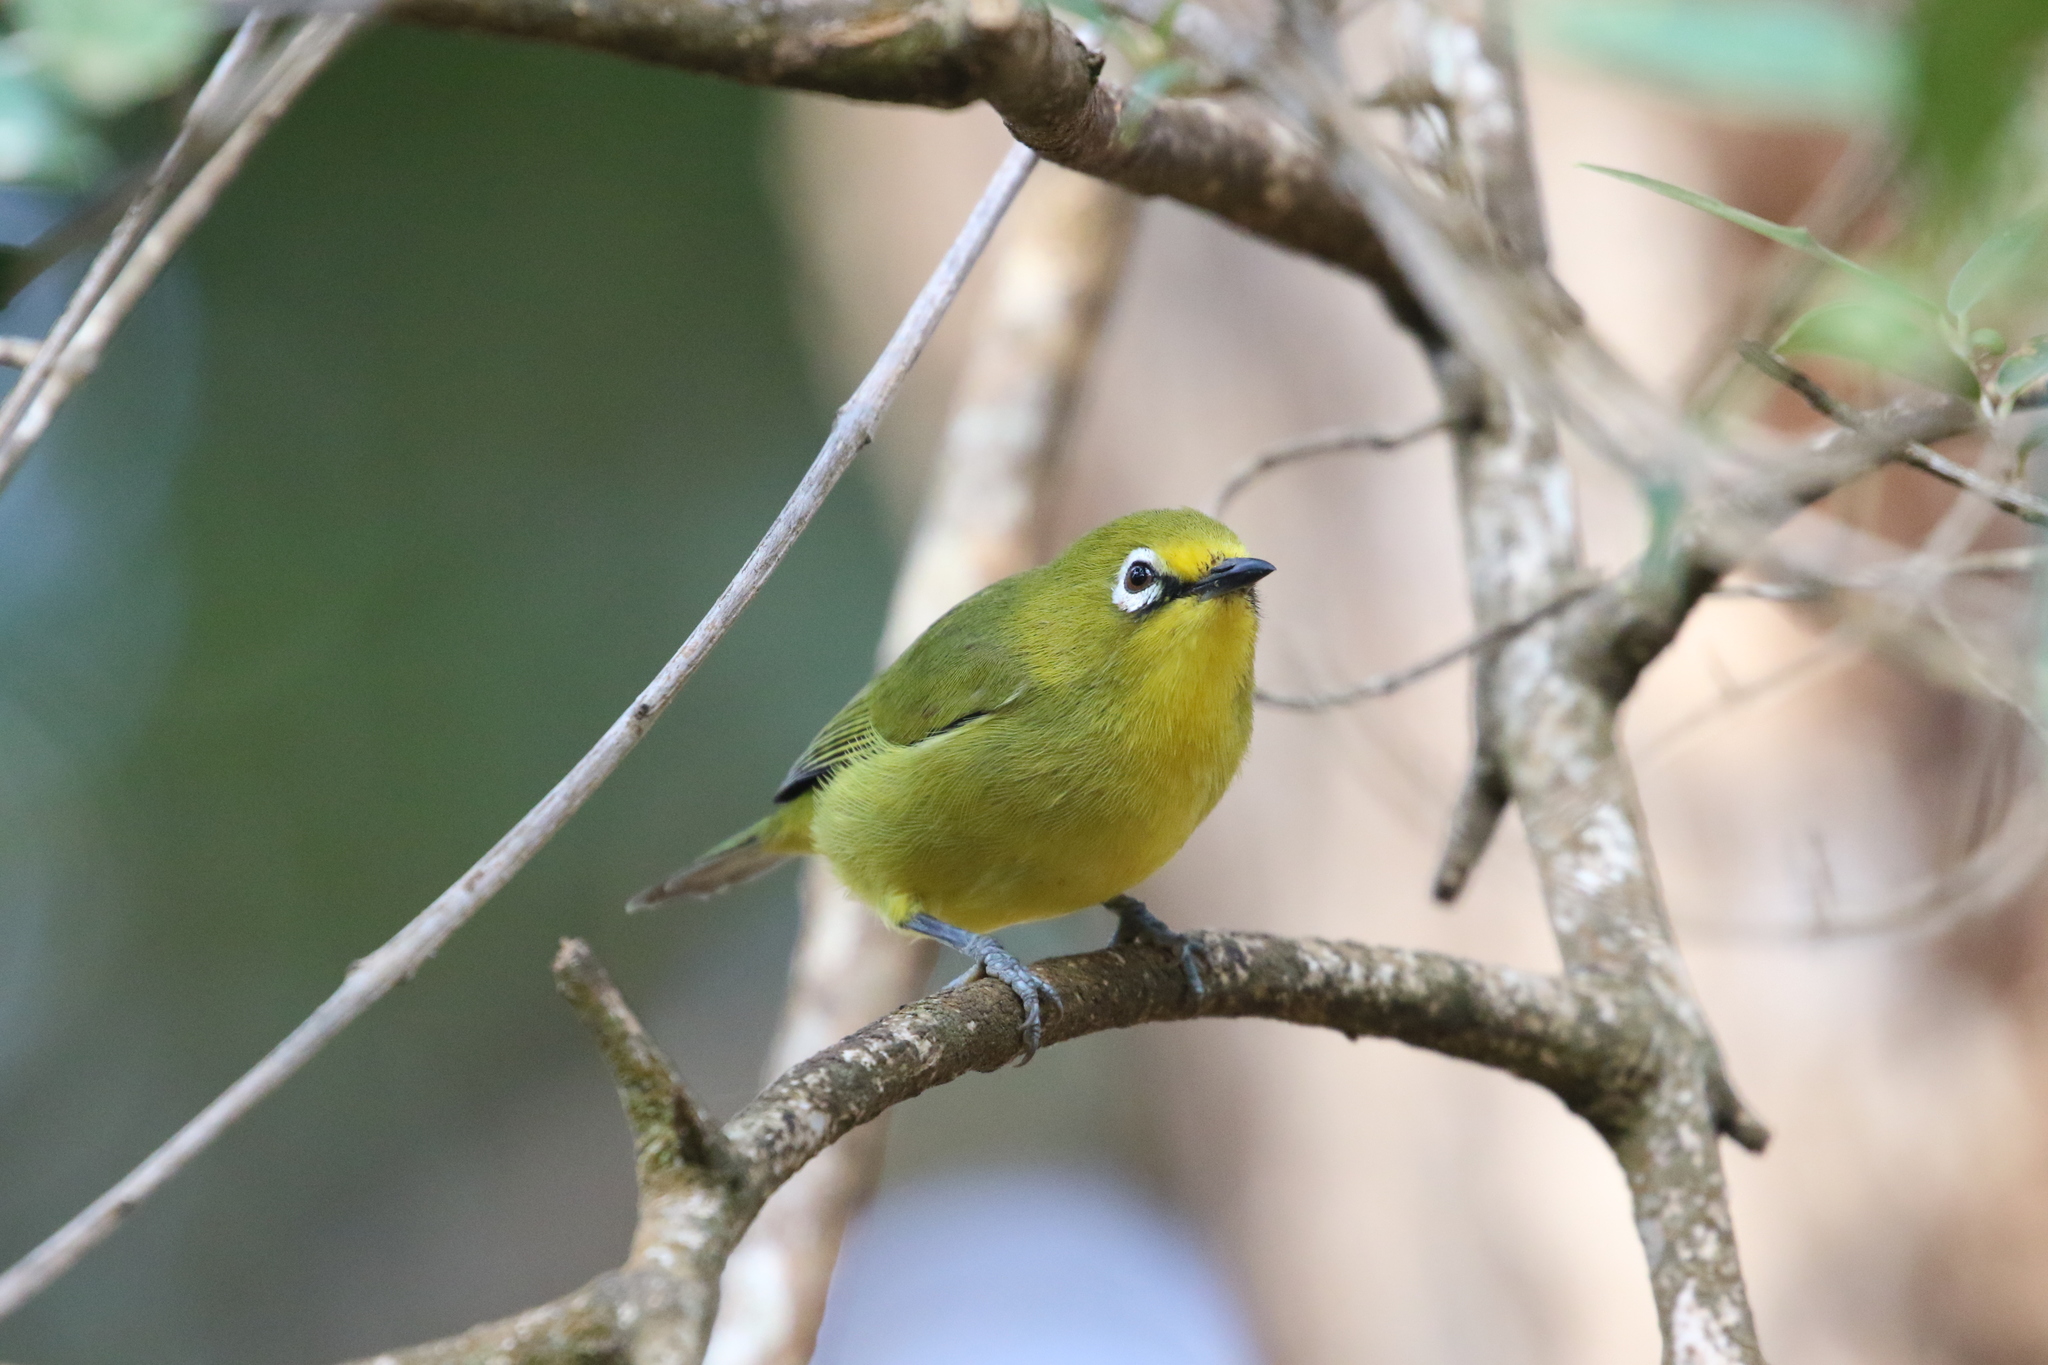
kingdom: Animalia
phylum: Chordata
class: Aves
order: Passeriformes
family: Zosteropidae
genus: Zosterops
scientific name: Zosterops senegalensis
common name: African yellow white-eye
